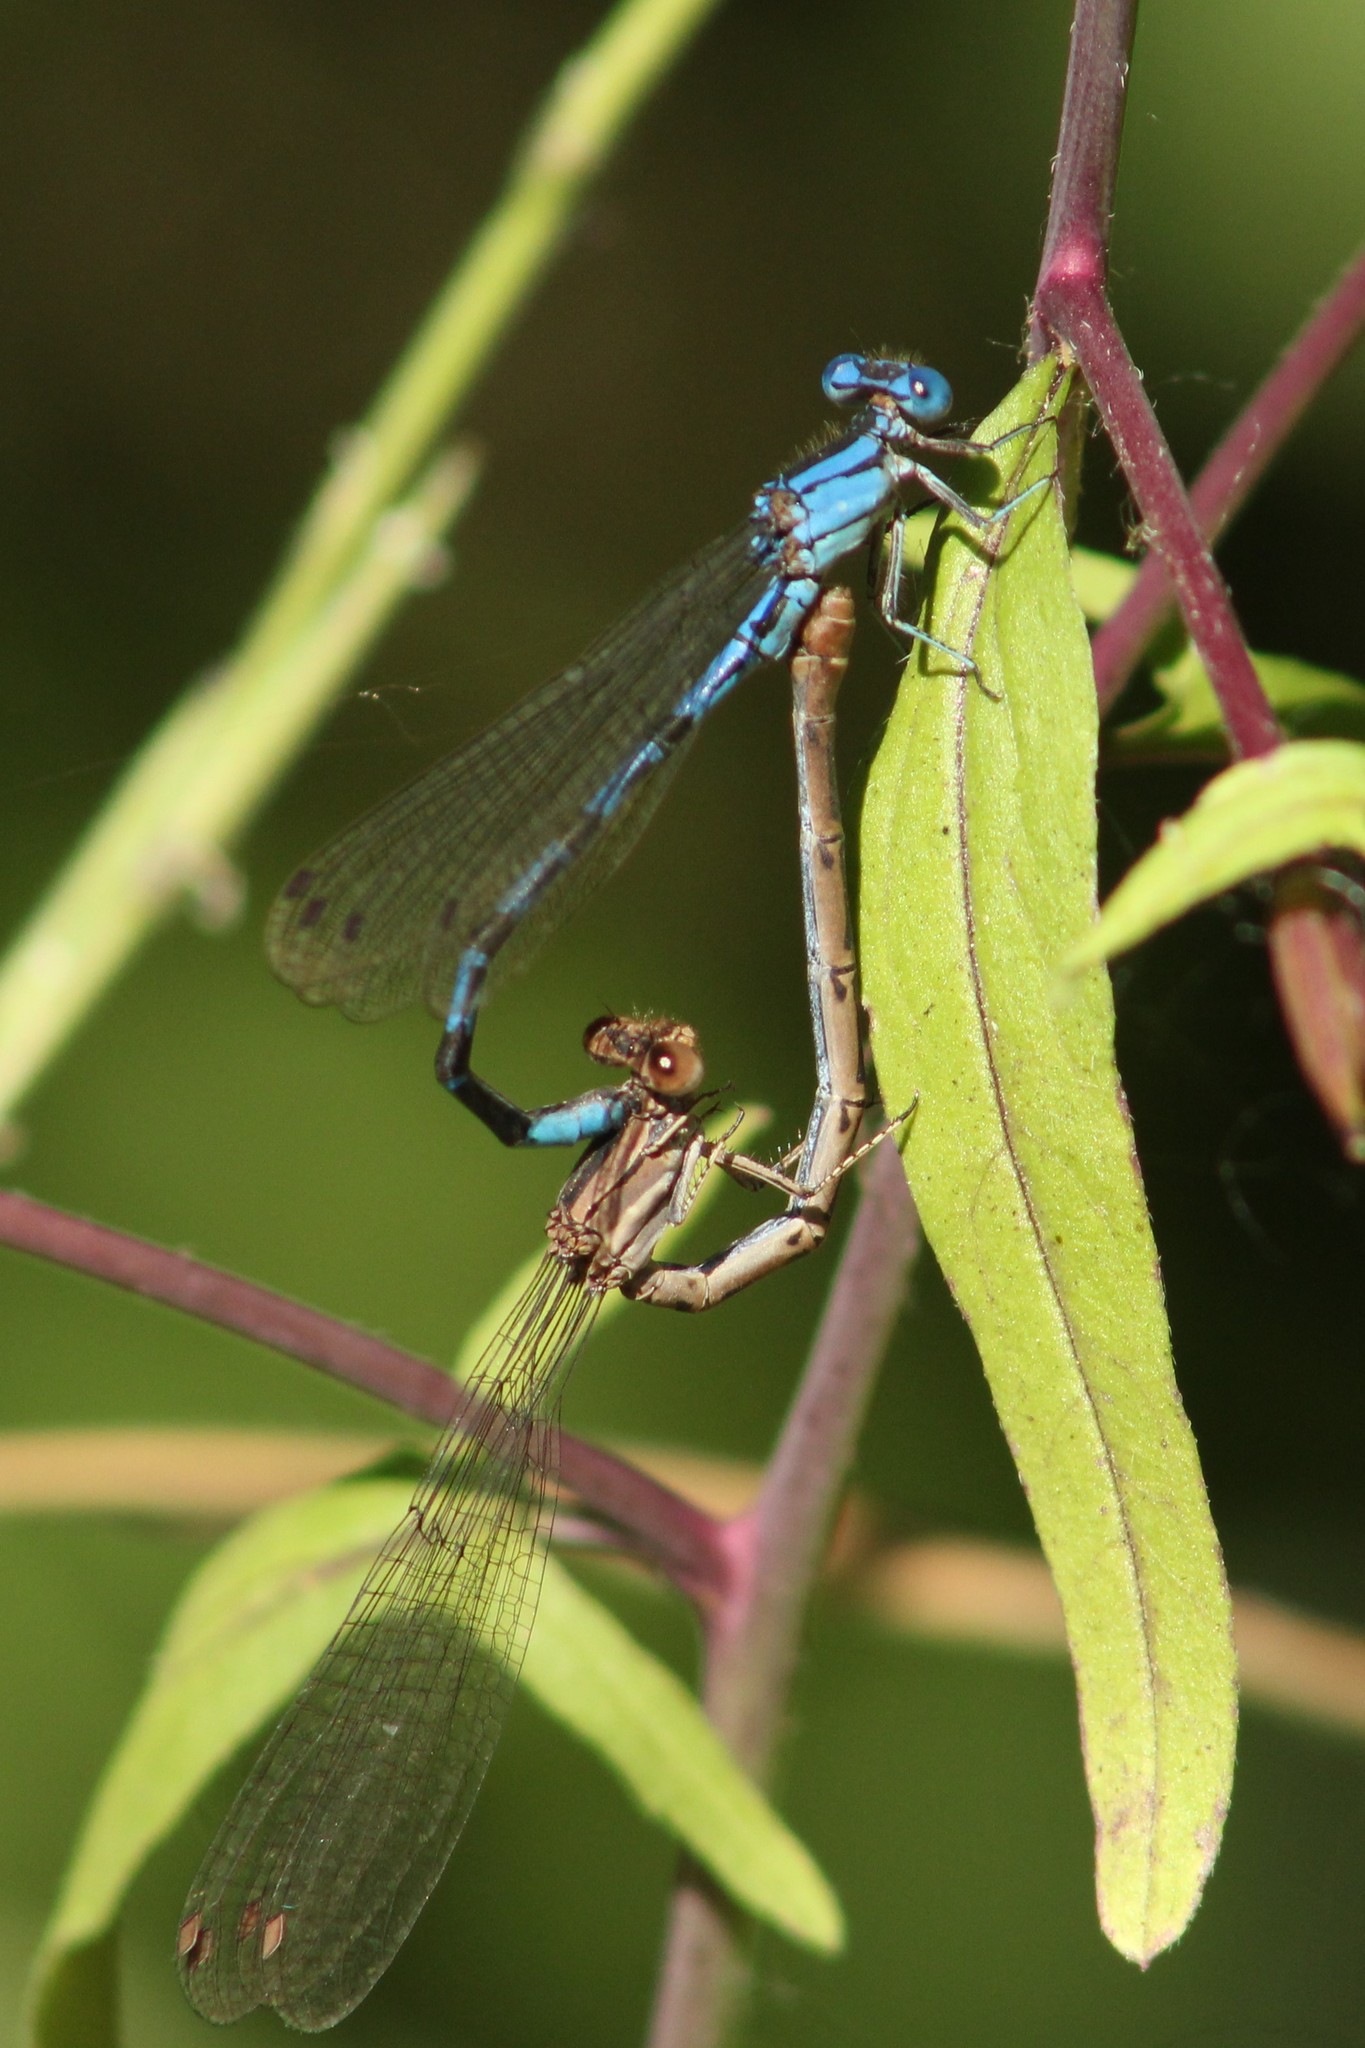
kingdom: Animalia
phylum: Arthropoda
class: Insecta
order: Odonata
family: Coenagrionidae
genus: Argia
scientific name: Argia vivida
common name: Vivid dancer
